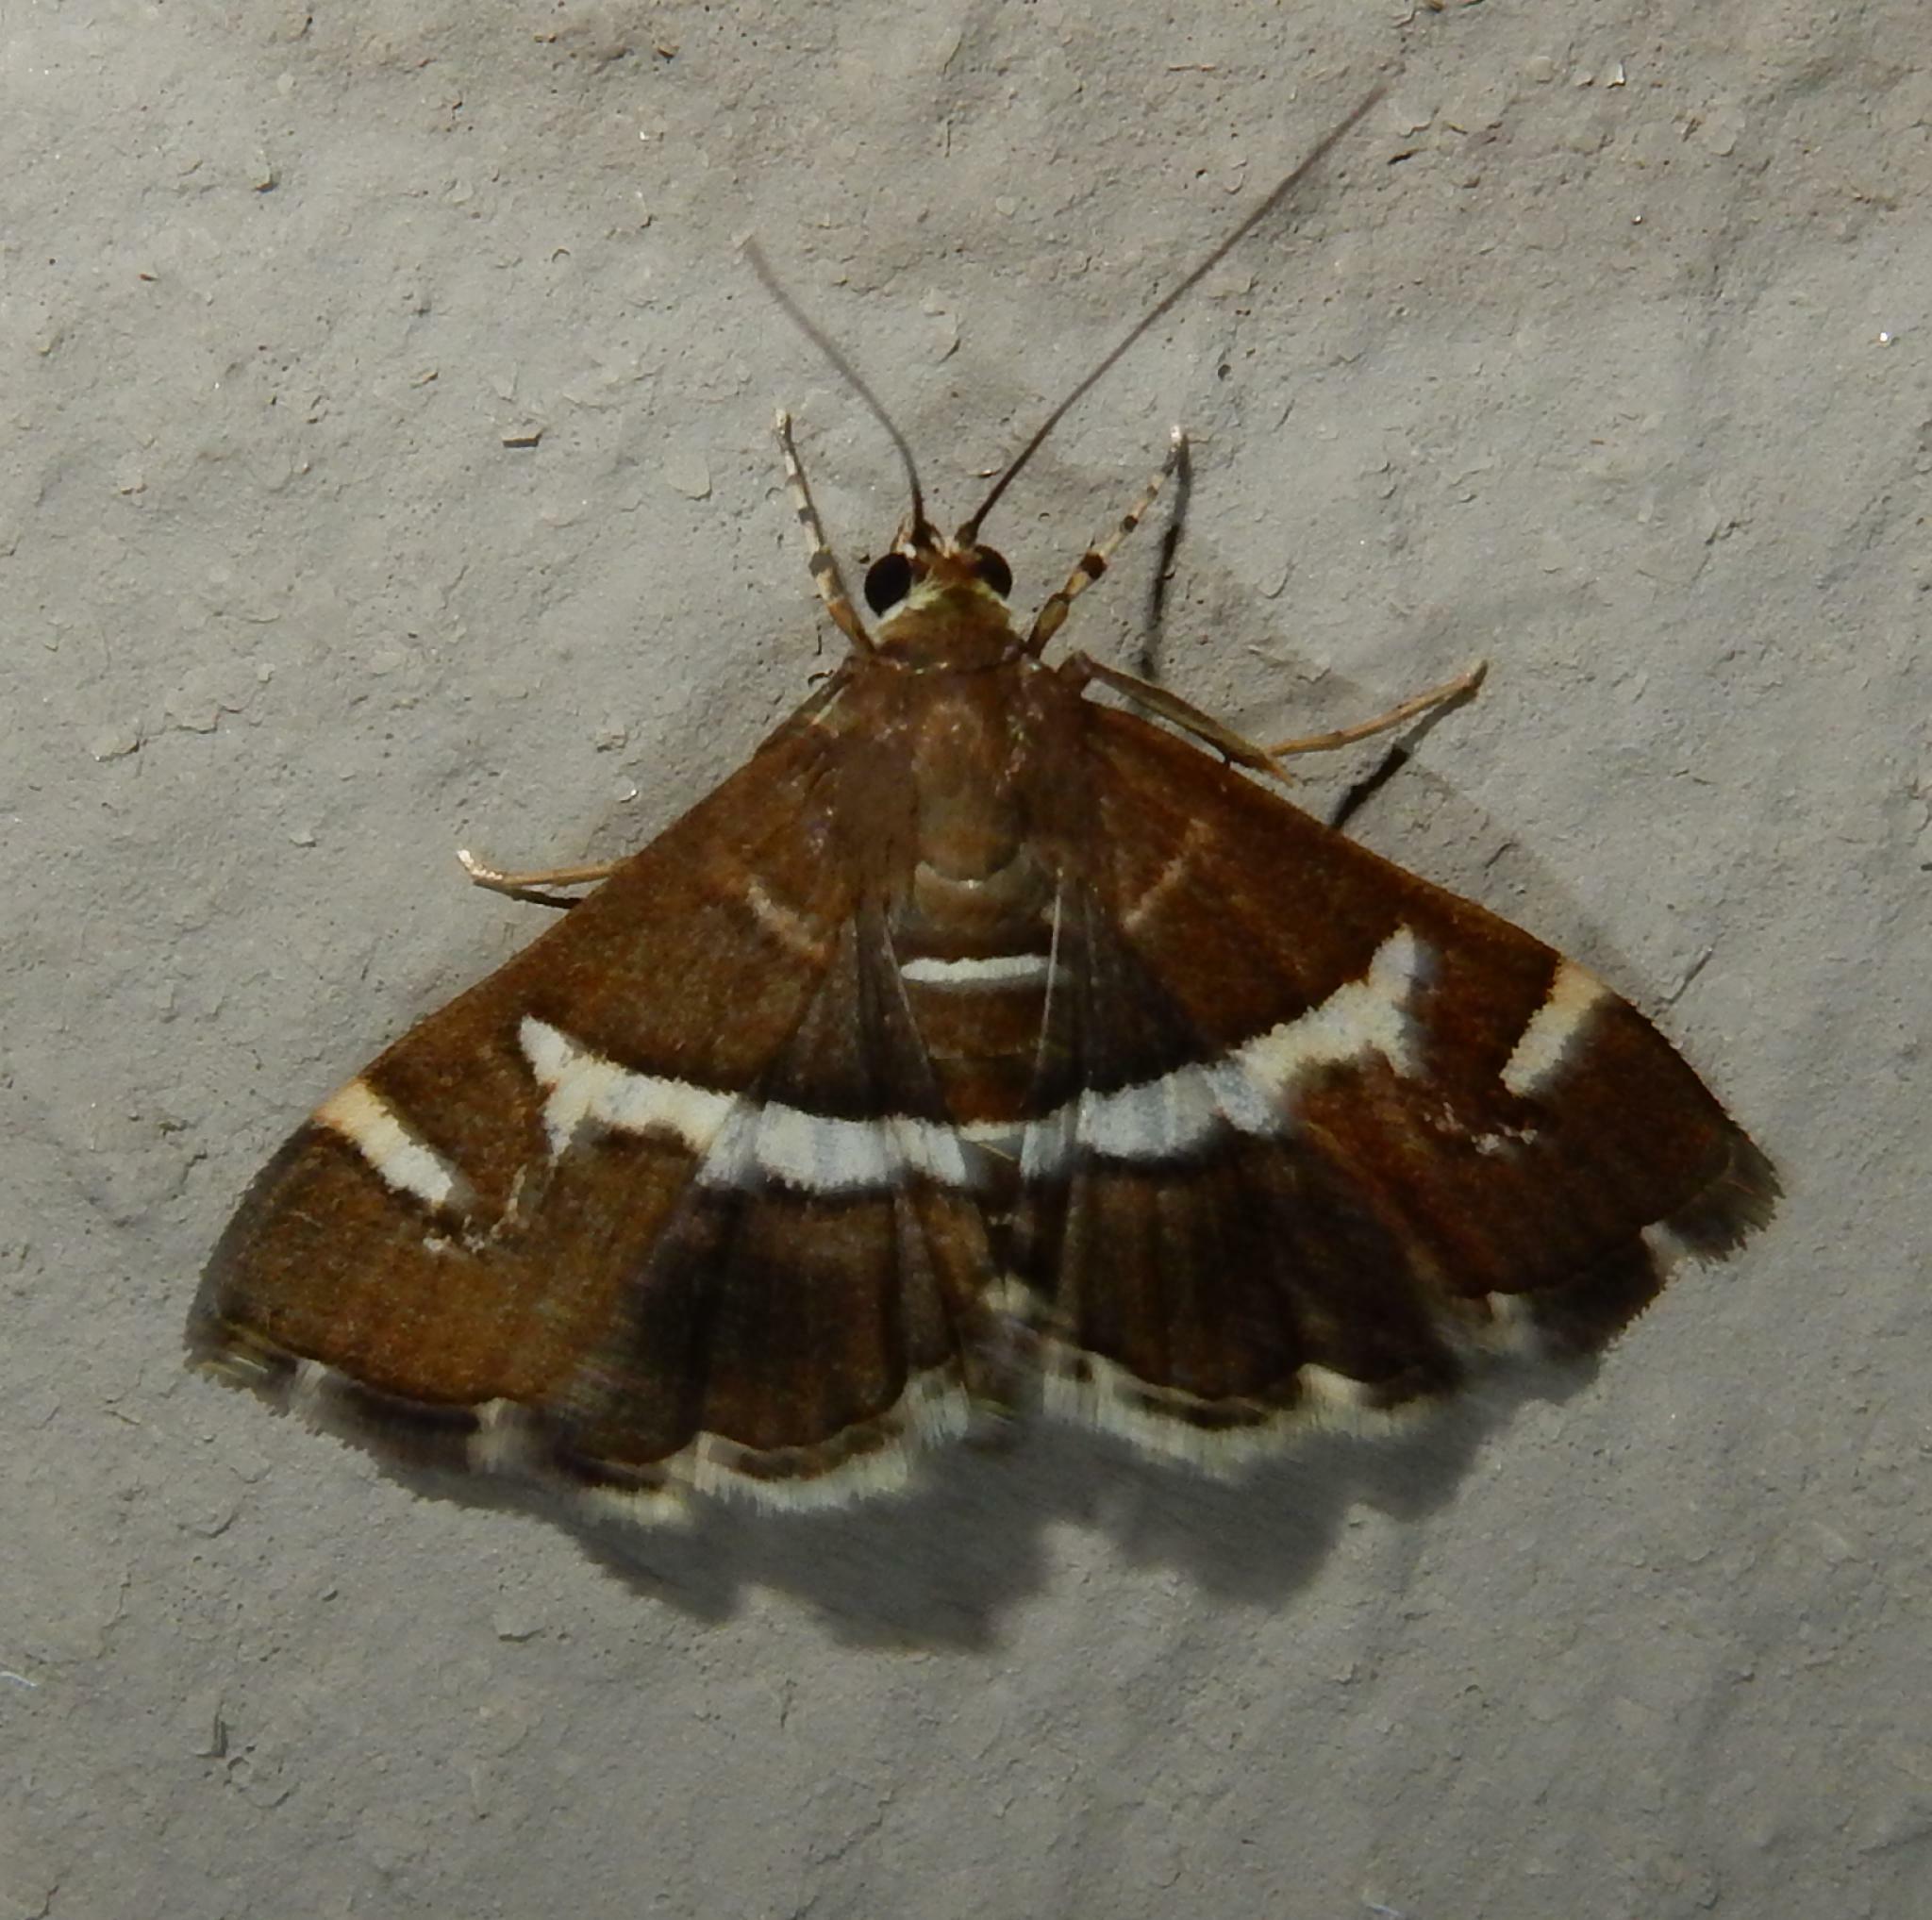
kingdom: Animalia
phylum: Arthropoda
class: Insecta
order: Lepidoptera
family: Crambidae
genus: Spoladea
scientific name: Spoladea recurvalis
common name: Beet webworm moth
